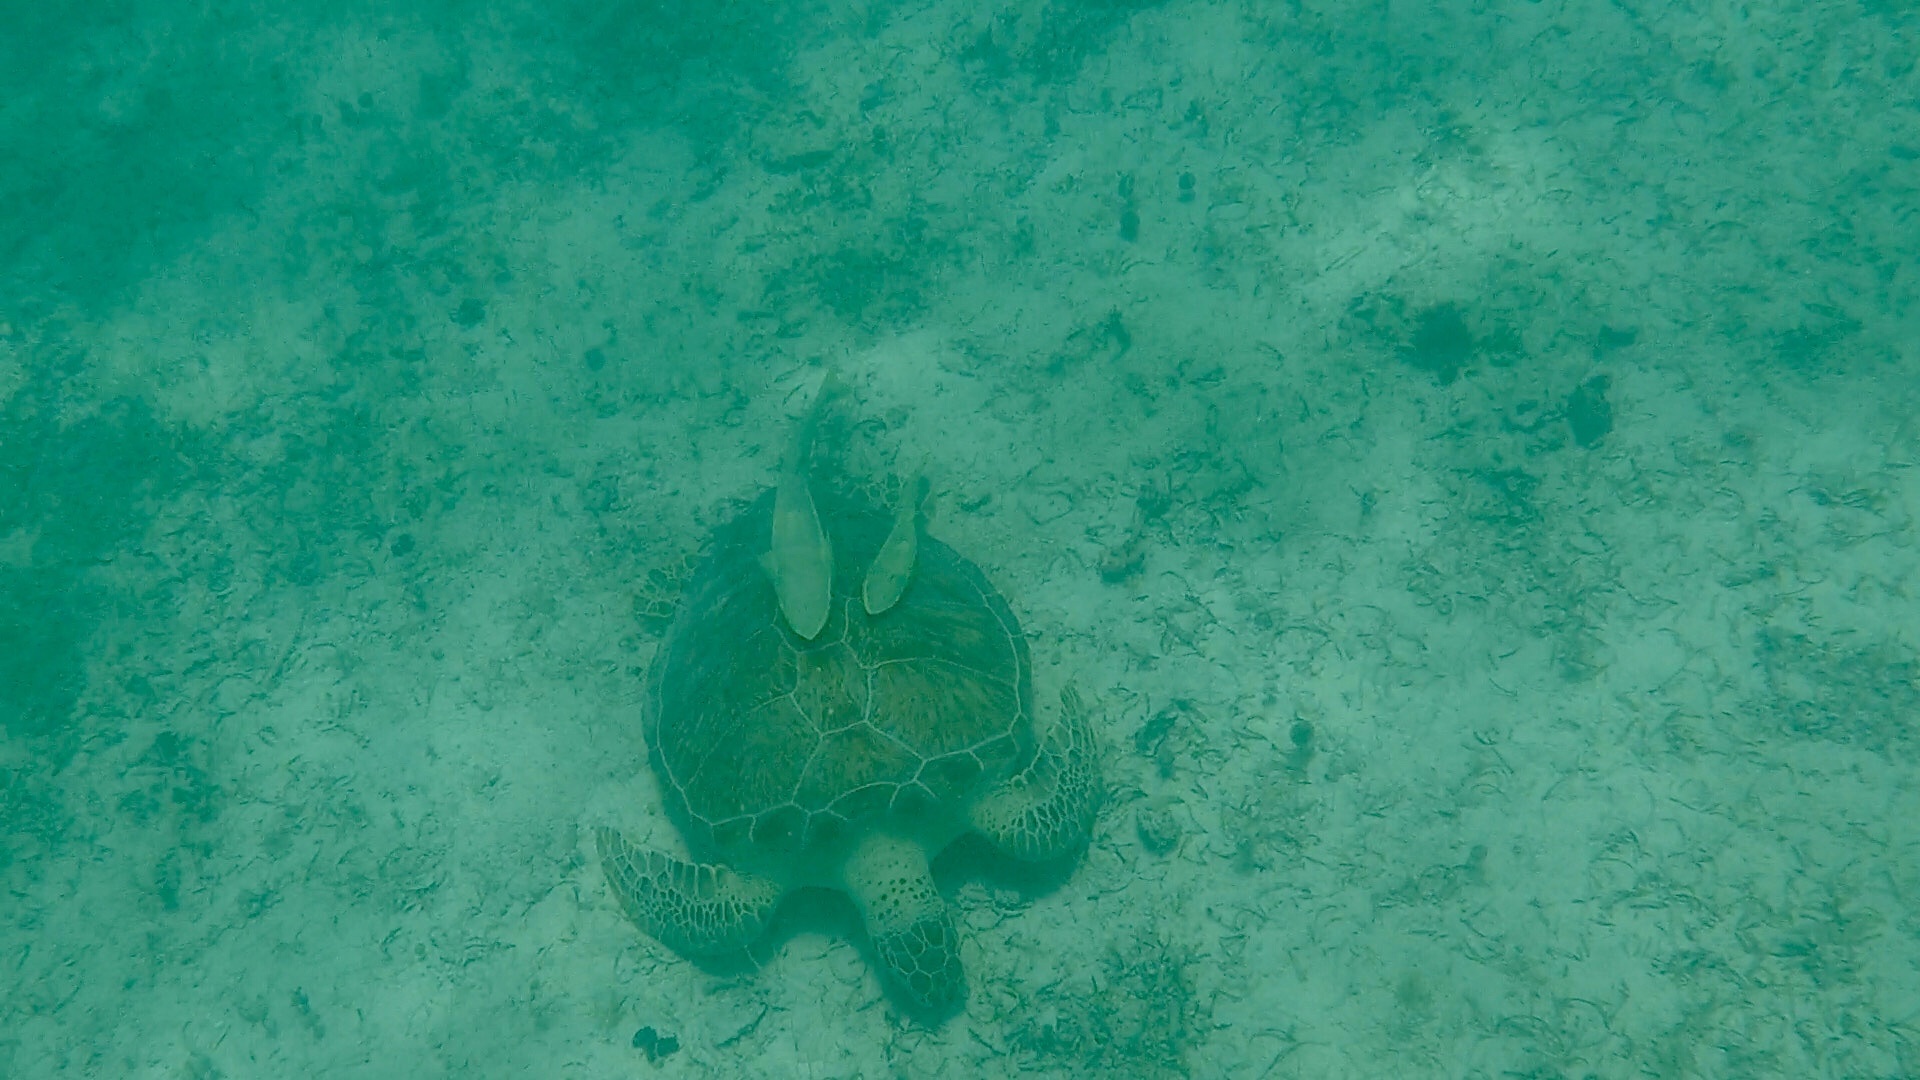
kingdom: Animalia
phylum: Chordata
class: Testudines
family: Cheloniidae
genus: Chelonia
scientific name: Chelonia mydas
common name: Green turtle
